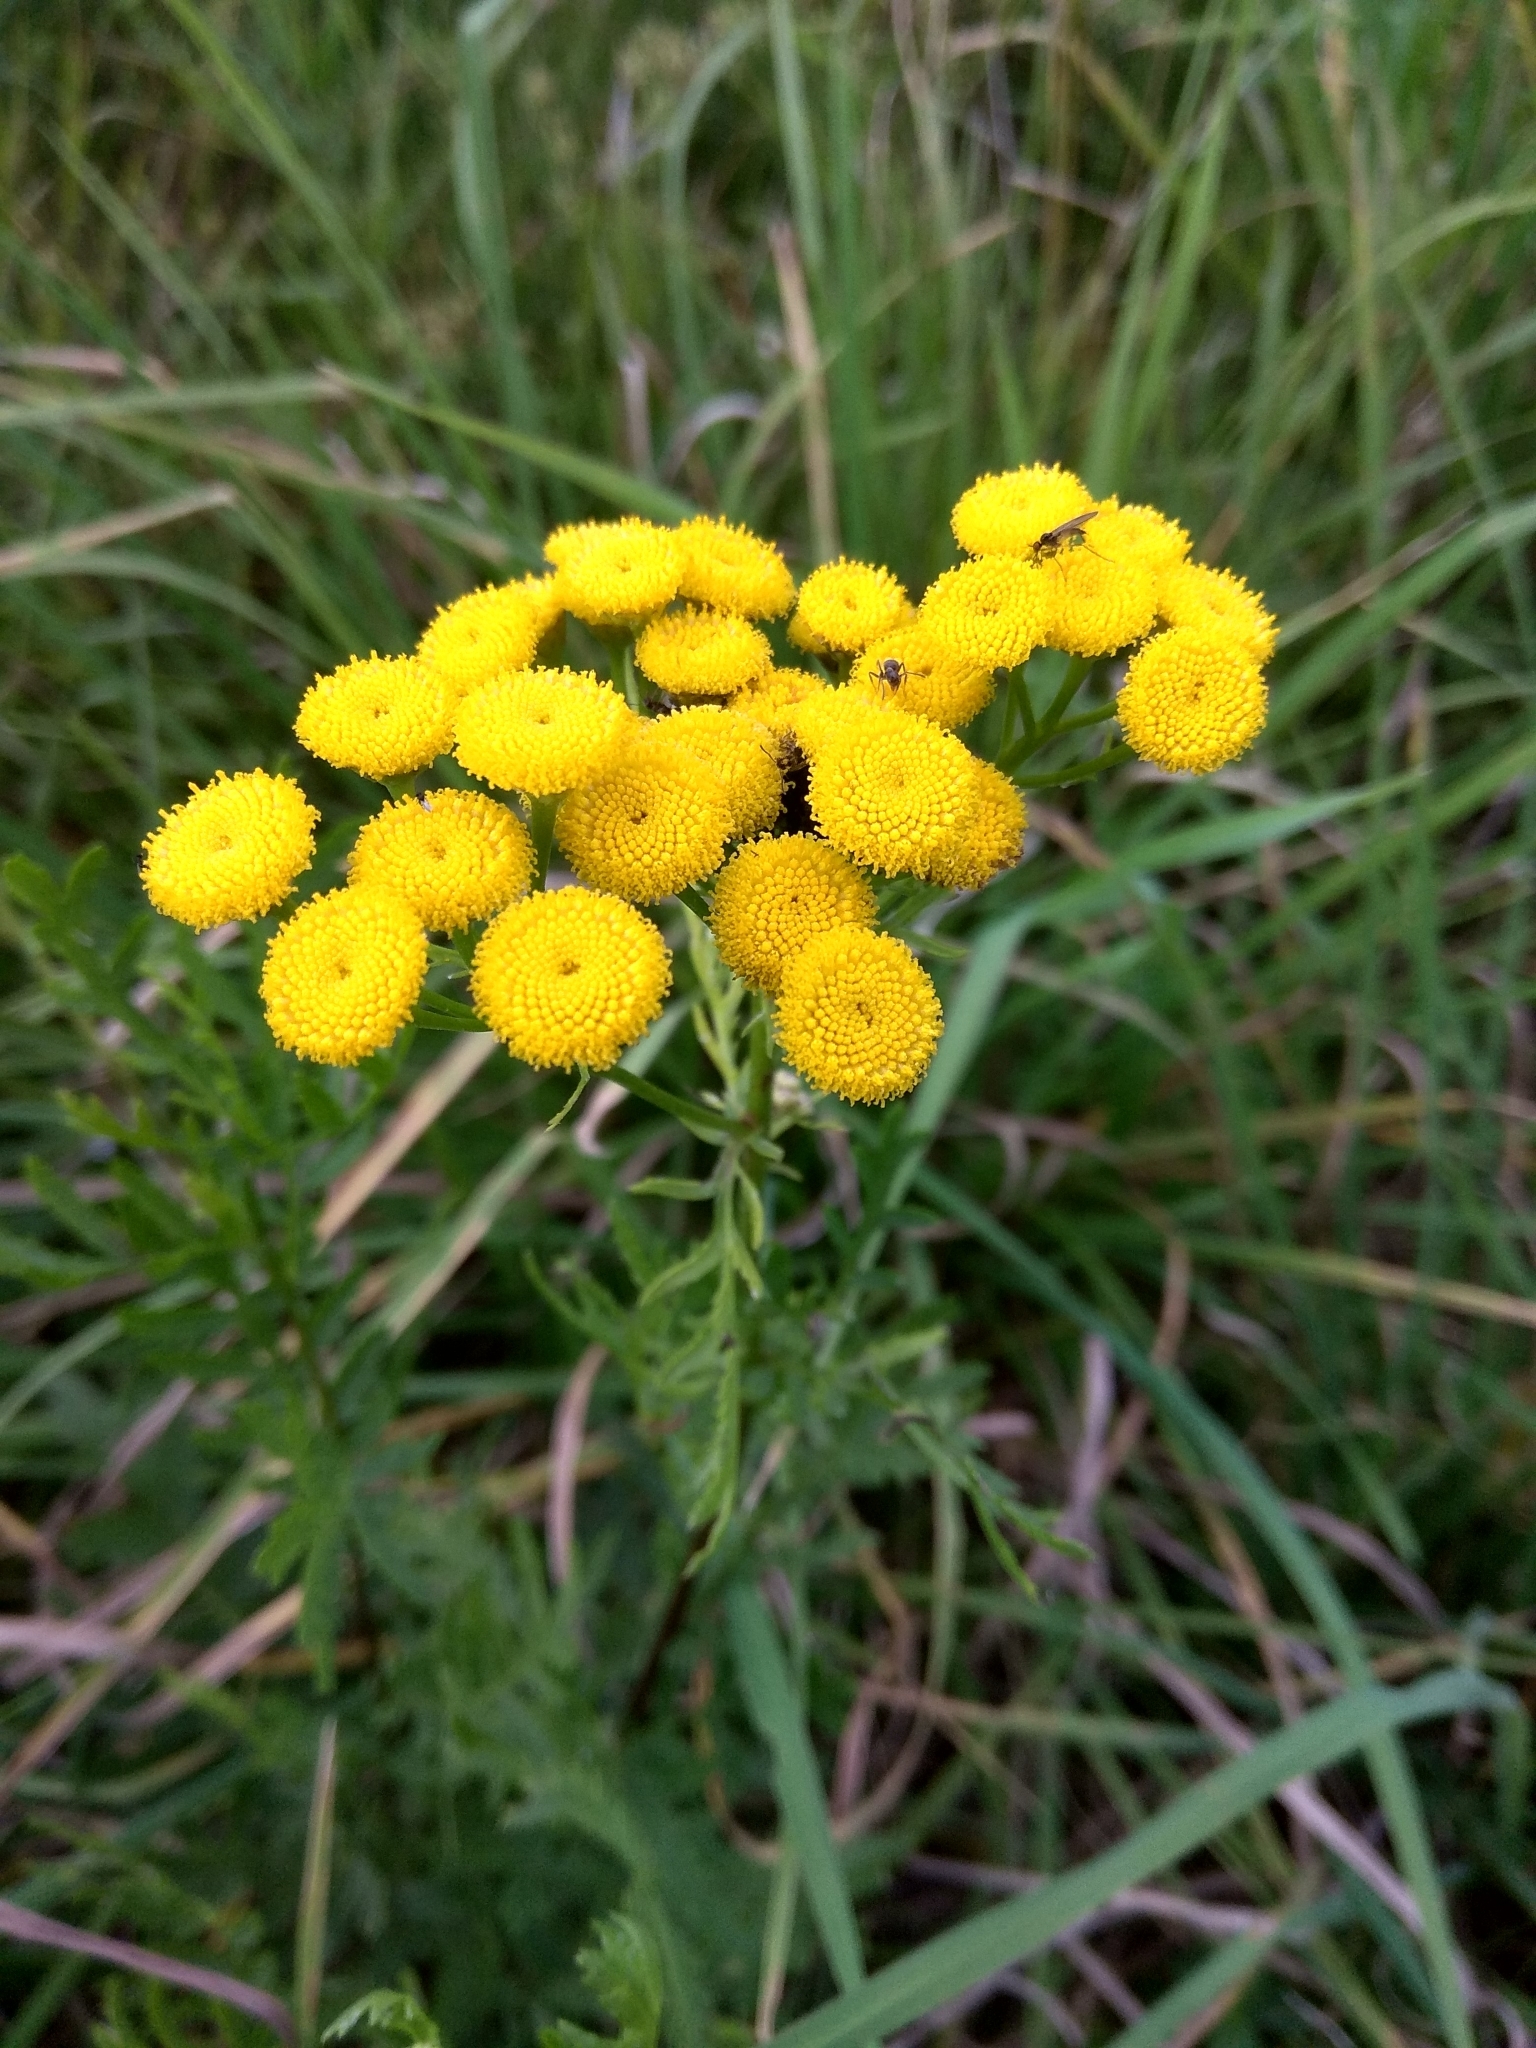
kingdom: Plantae
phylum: Tracheophyta
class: Magnoliopsida
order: Asterales
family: Asteraceae
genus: Tanacetum
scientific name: Tanacetum vulgare
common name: Common tansy
